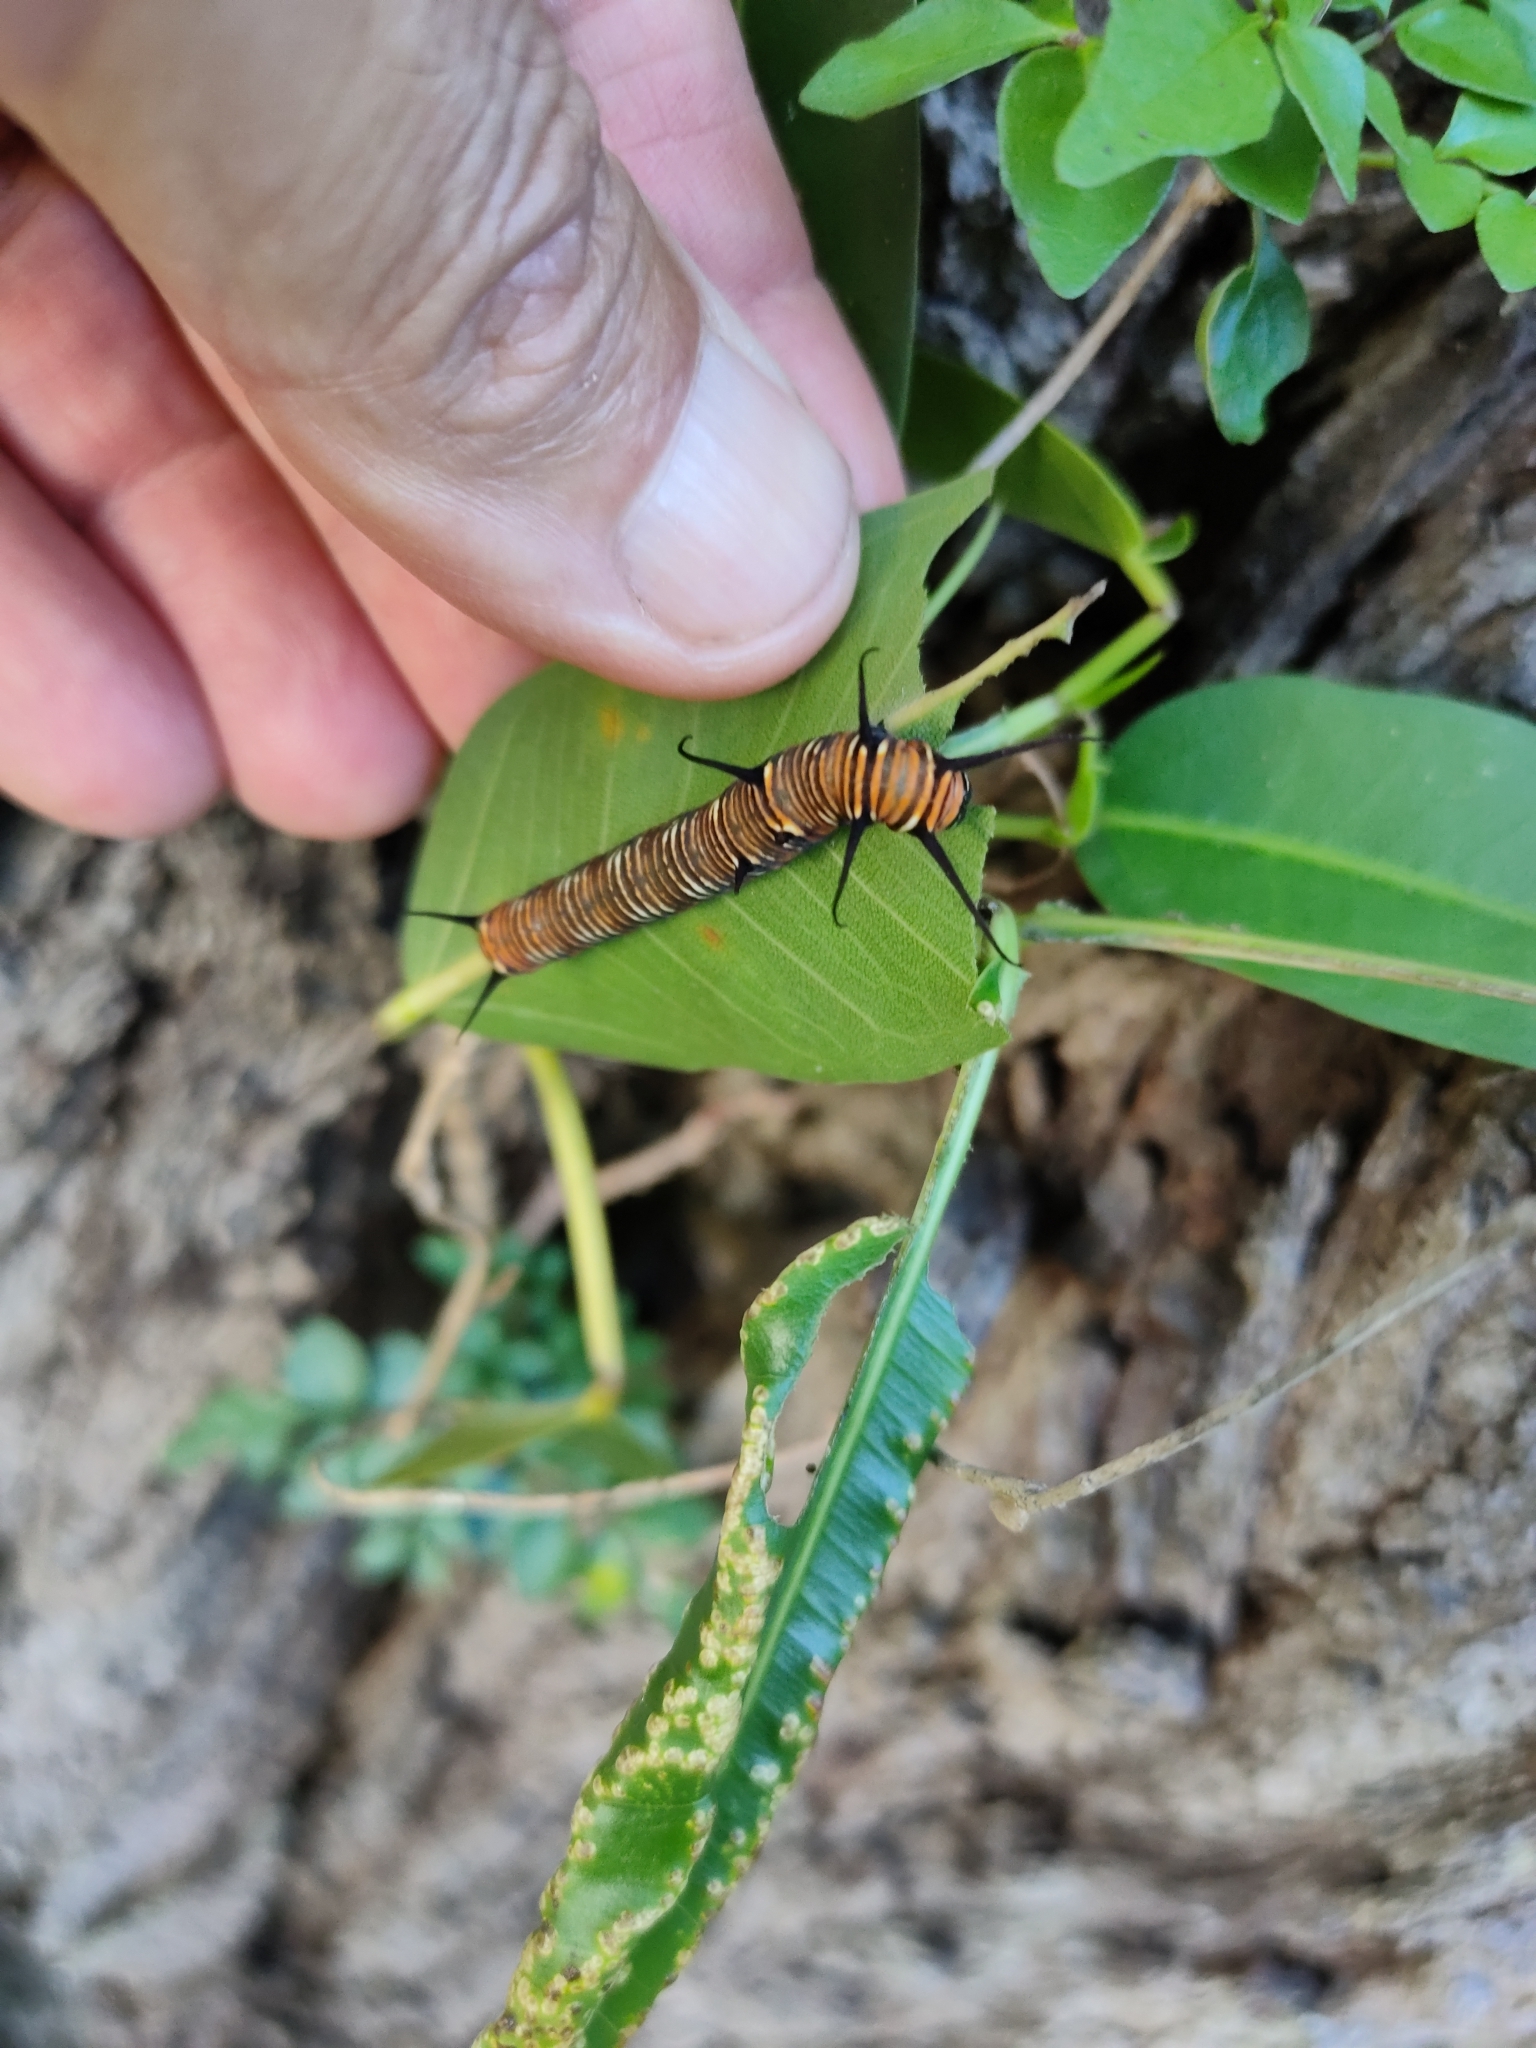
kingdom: Animalia
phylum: Arthropoda
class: Insecta
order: Lepidoptera
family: Nymphalidae
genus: Euploea
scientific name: Euploea core
